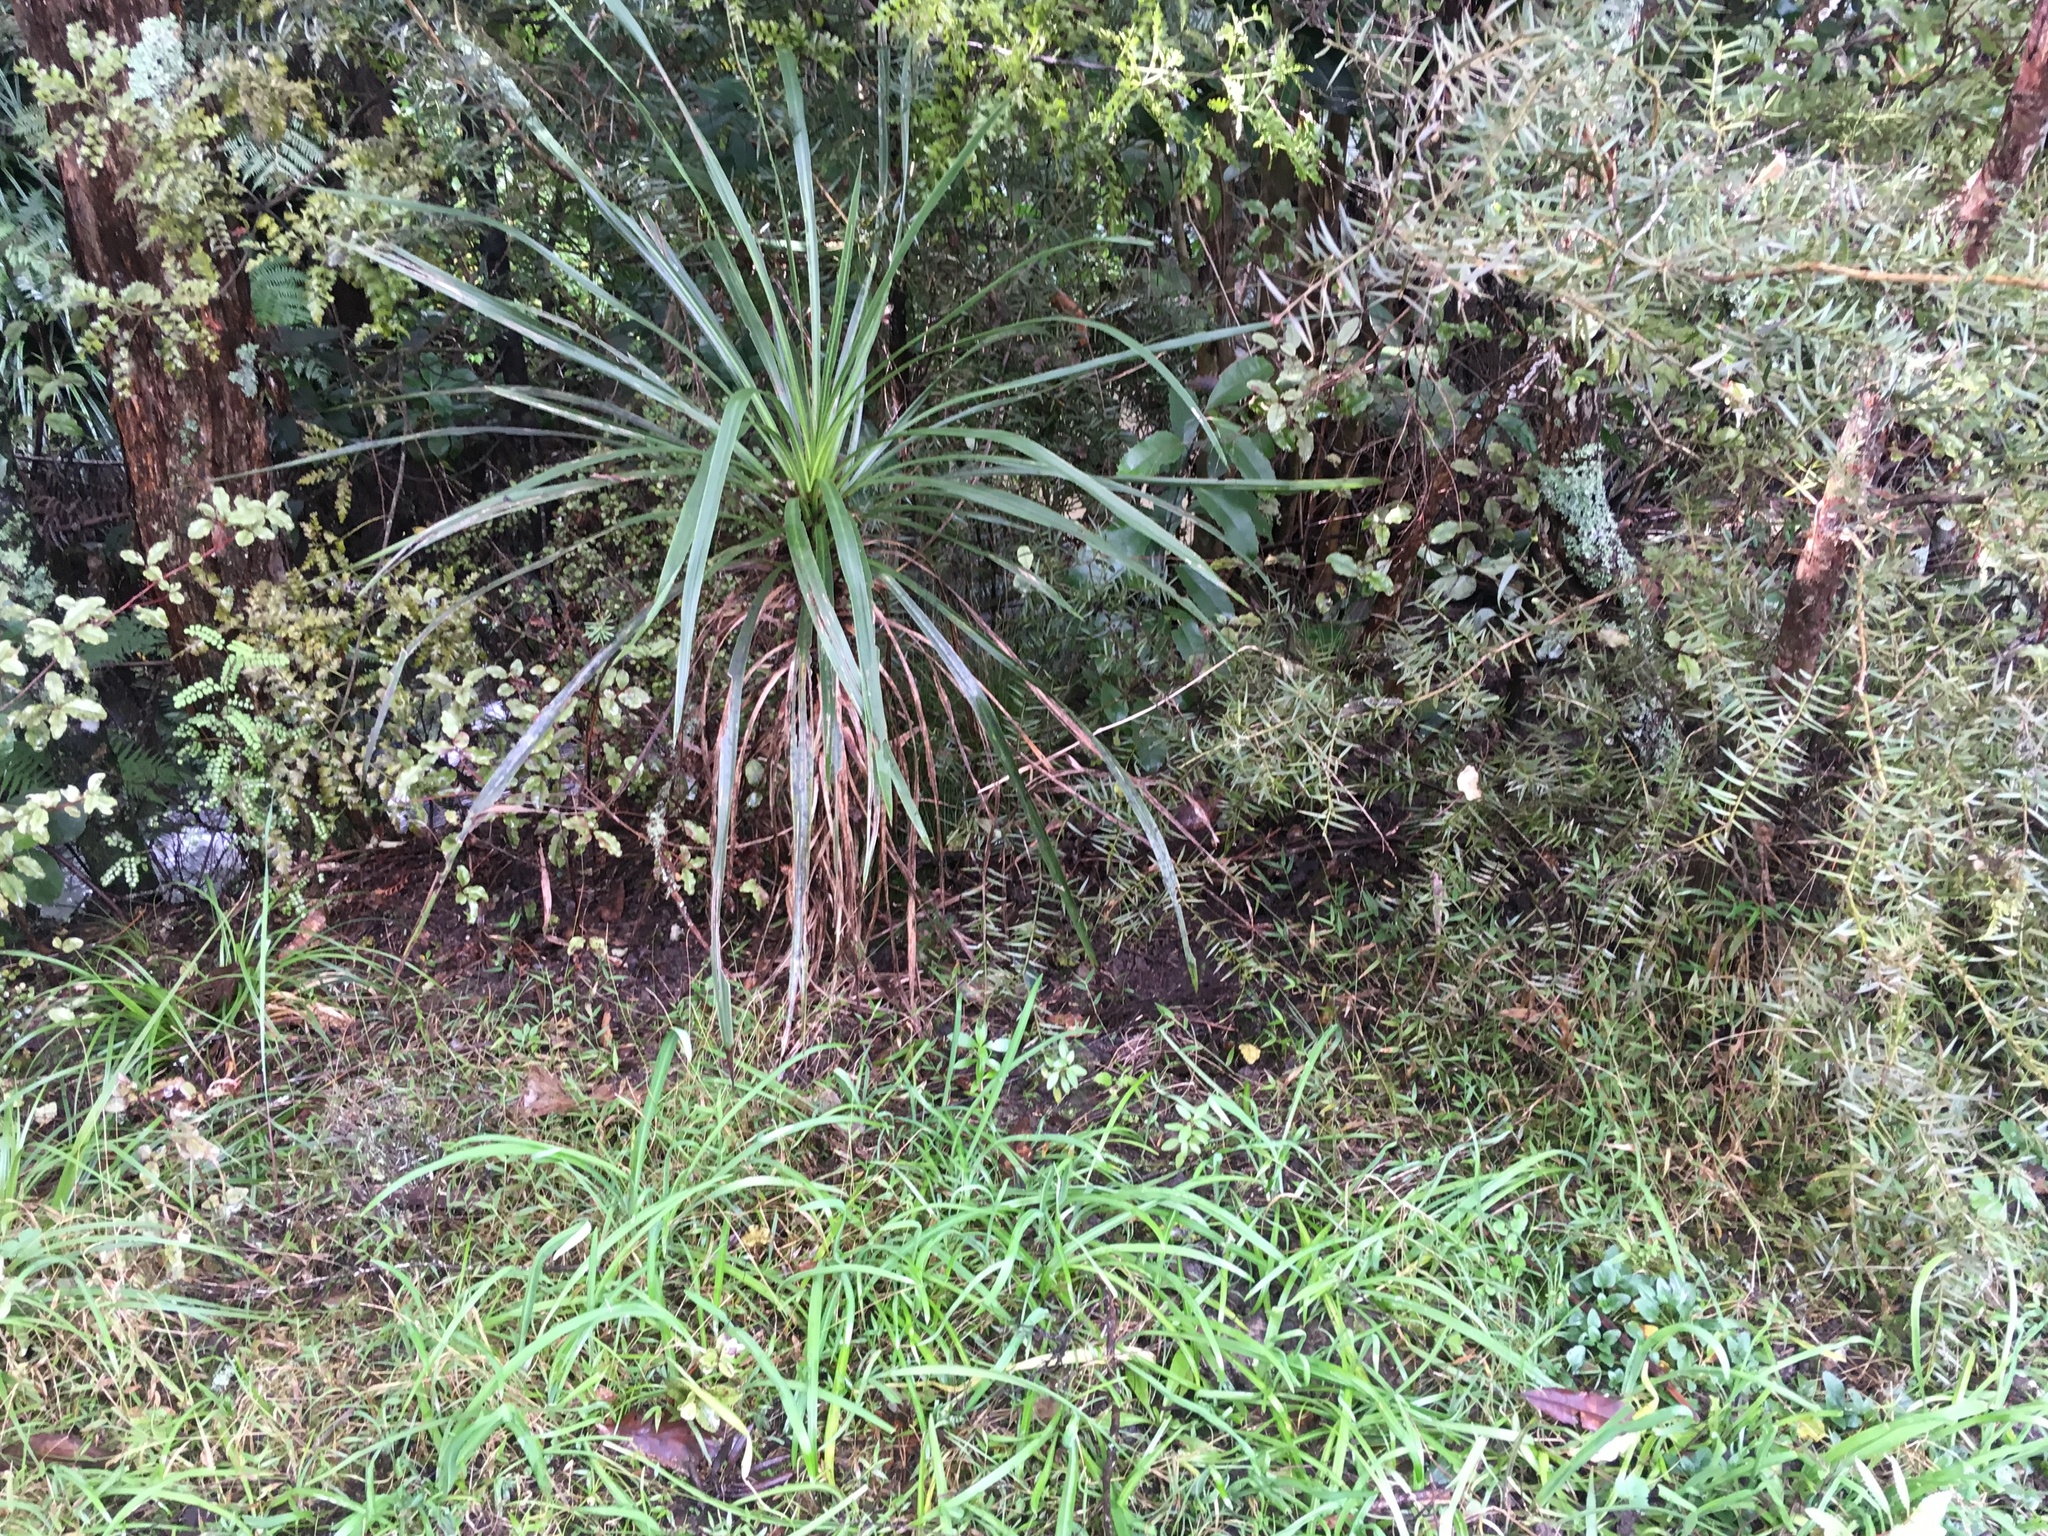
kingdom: Plantae
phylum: Tracheophyta
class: Liliopsida
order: Asparagales
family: Asparagaceae
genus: Cordyline
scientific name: Cordyline australis
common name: Cabbage-palm
